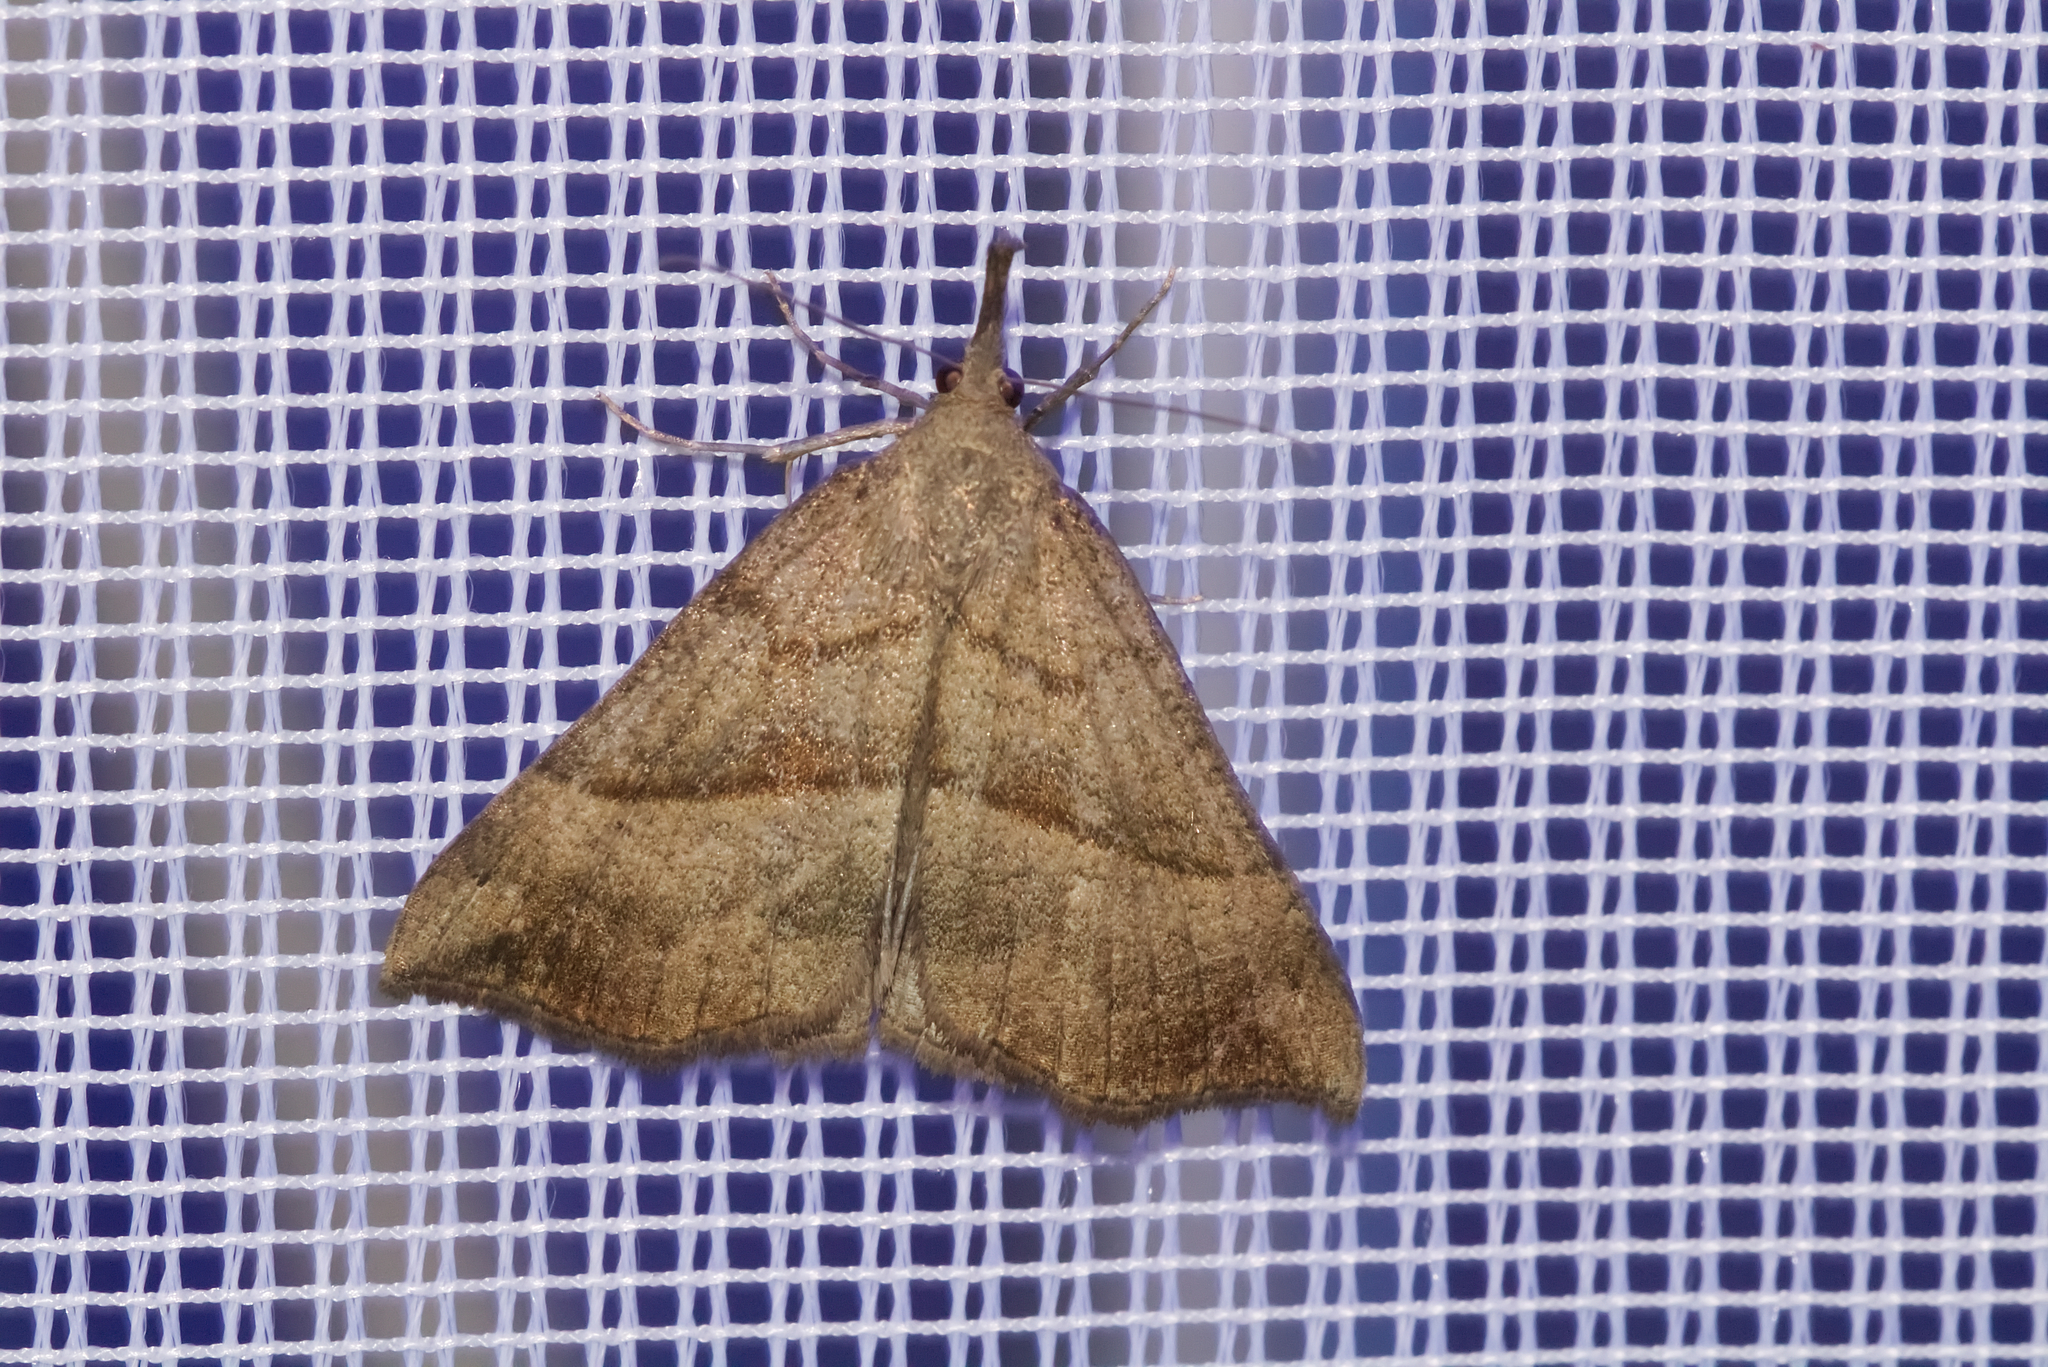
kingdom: Animalia
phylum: Arthropoda
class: Insecta
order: Lepidoptera
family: Erebidae
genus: Hypena
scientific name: Hypena proboscidalis
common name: Snout
